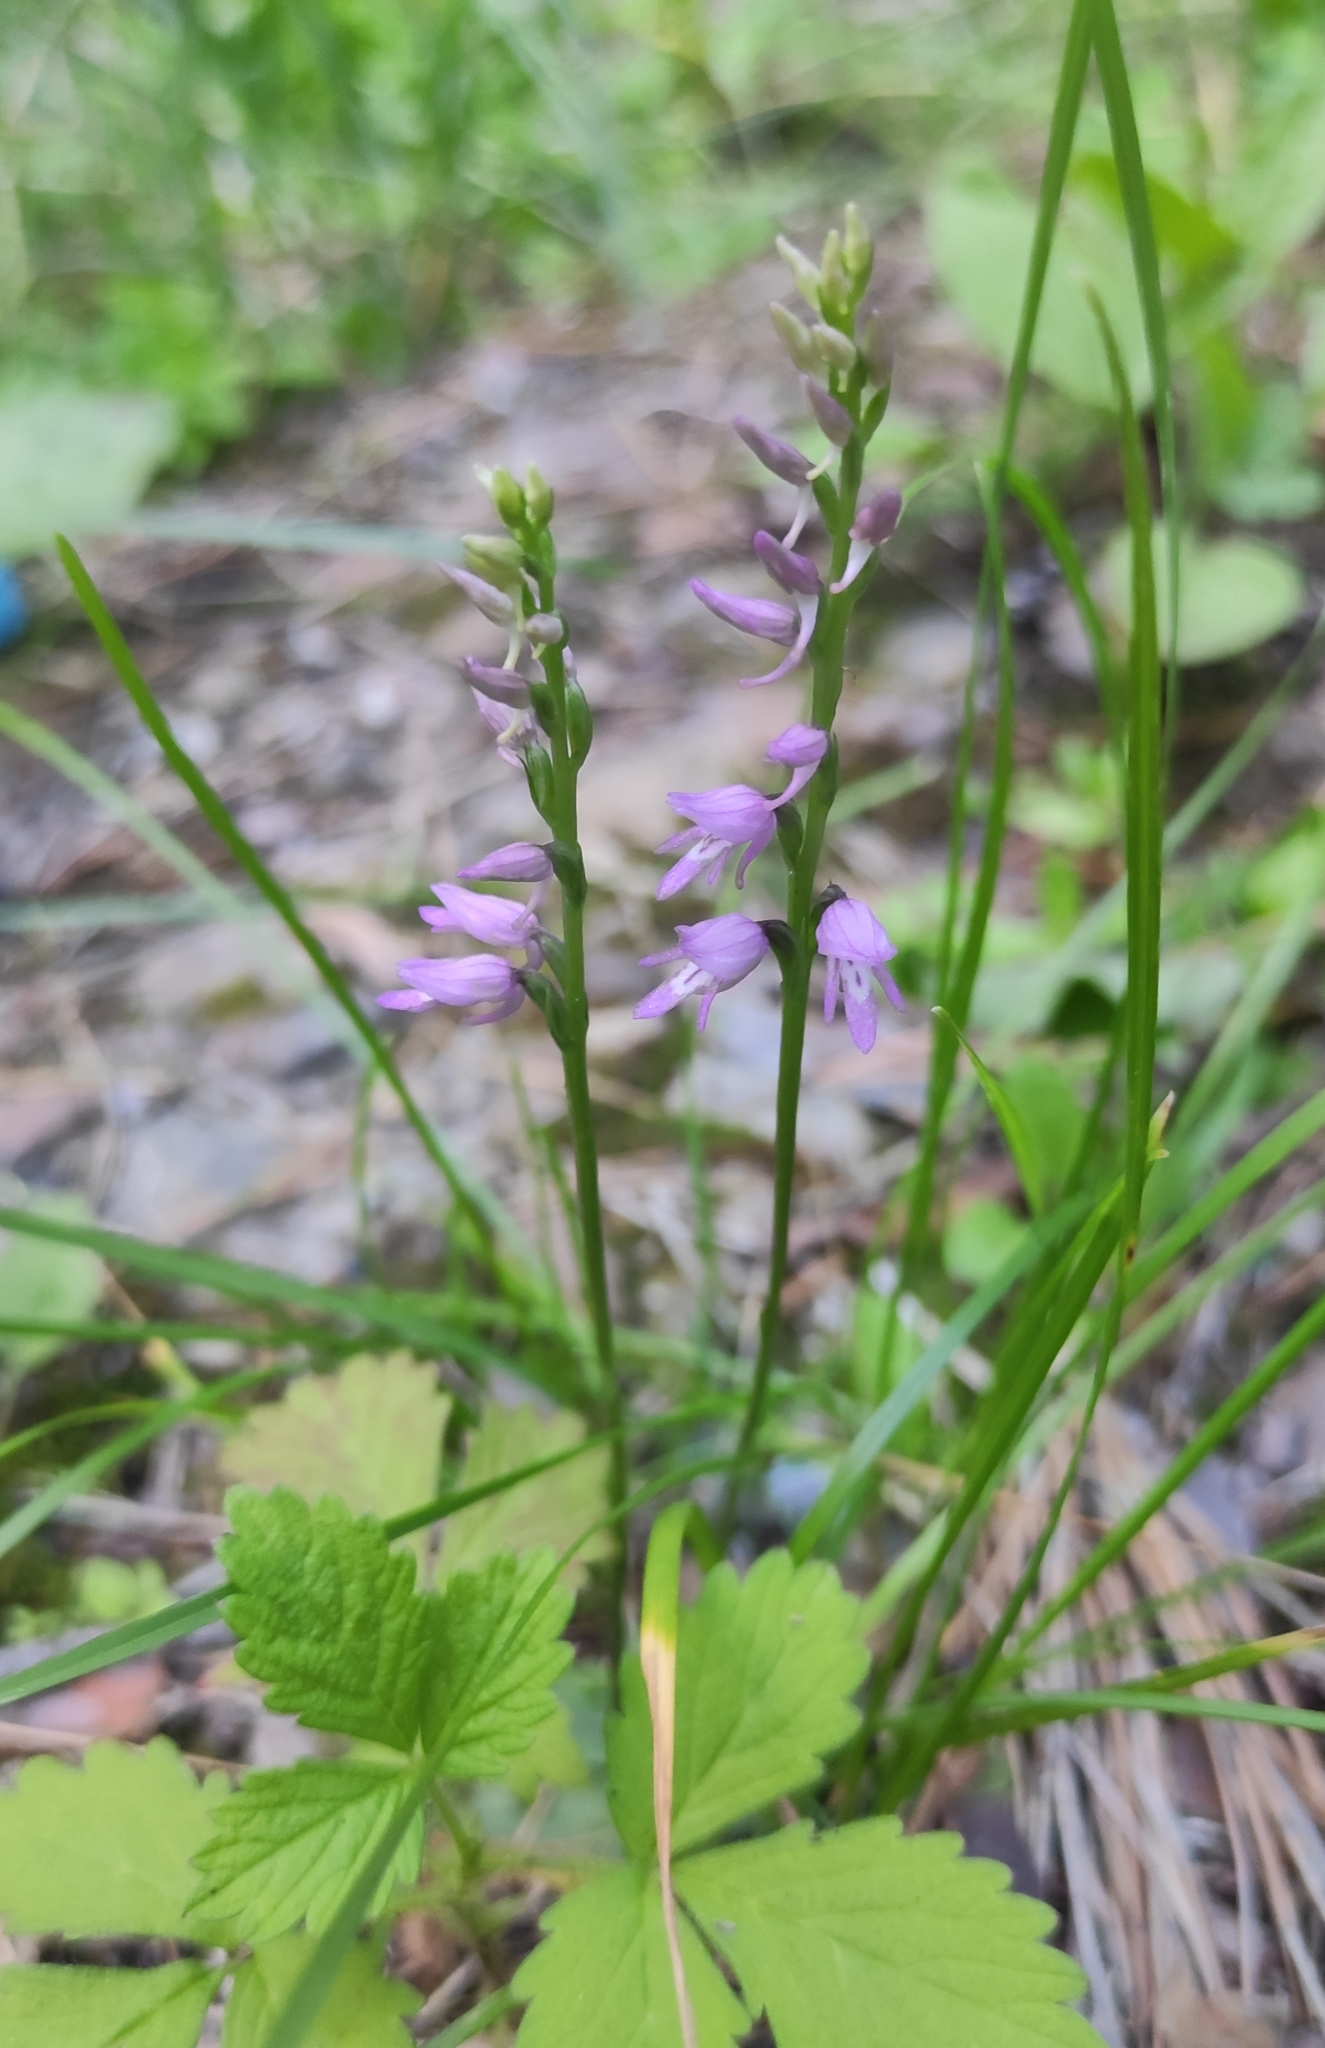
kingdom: Plantae
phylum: Tracheophyta
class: Liliopsida
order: Asparagales
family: Orchidaceae
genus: Hemipilia
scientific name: Hemipilia cucullata
